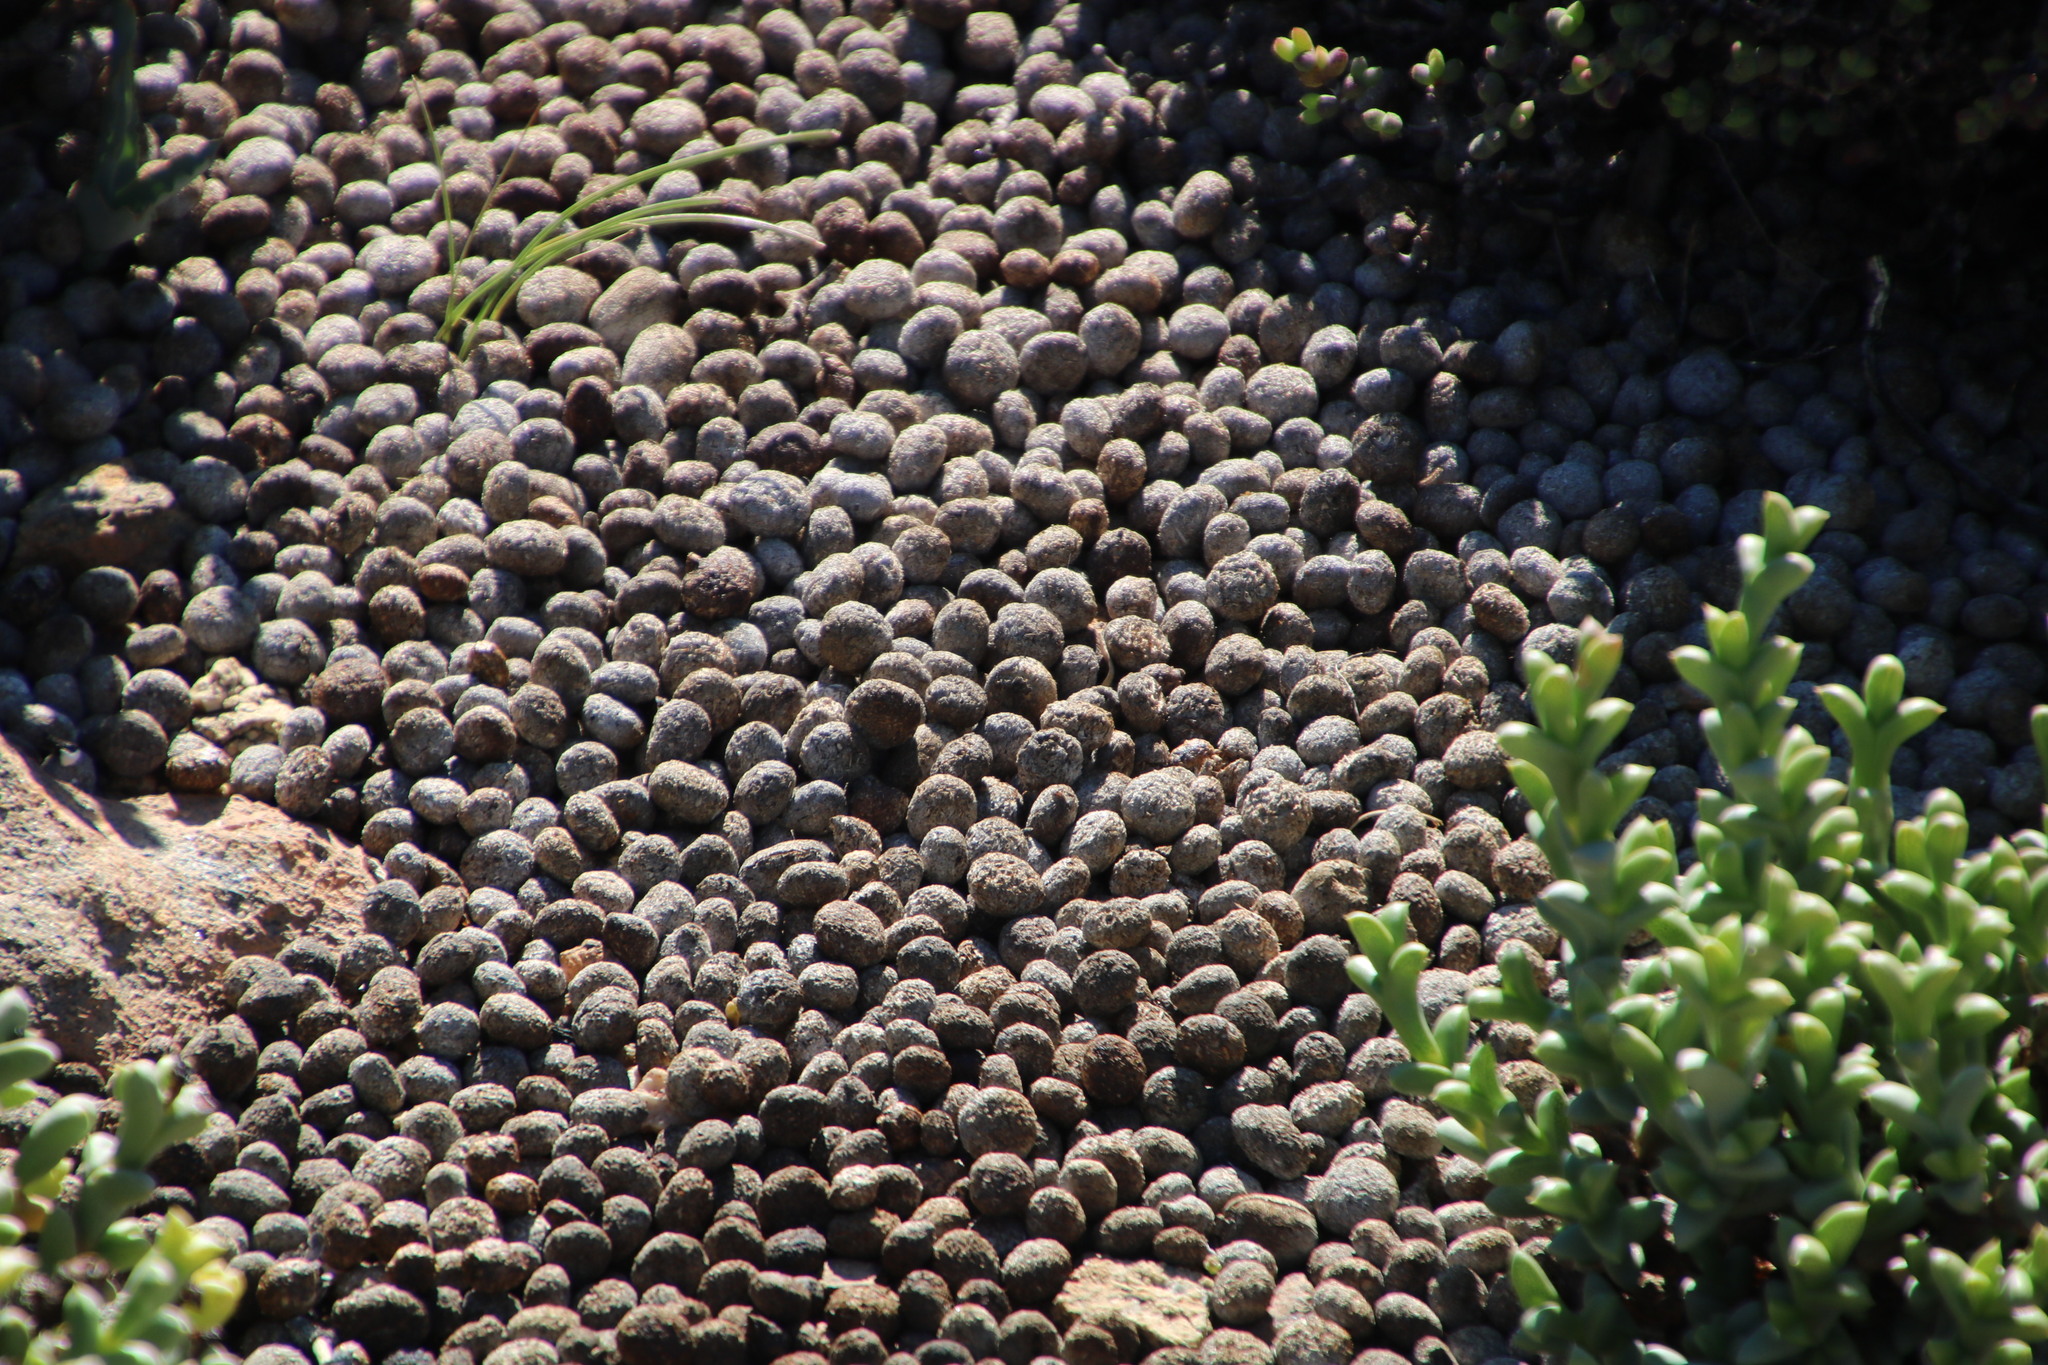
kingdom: Animalia
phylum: Chordata
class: Mammalia
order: Lagomorpha
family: Leporidae
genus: Pronolagus
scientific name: Pronolagus rupestris
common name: Smith's red rock hare
